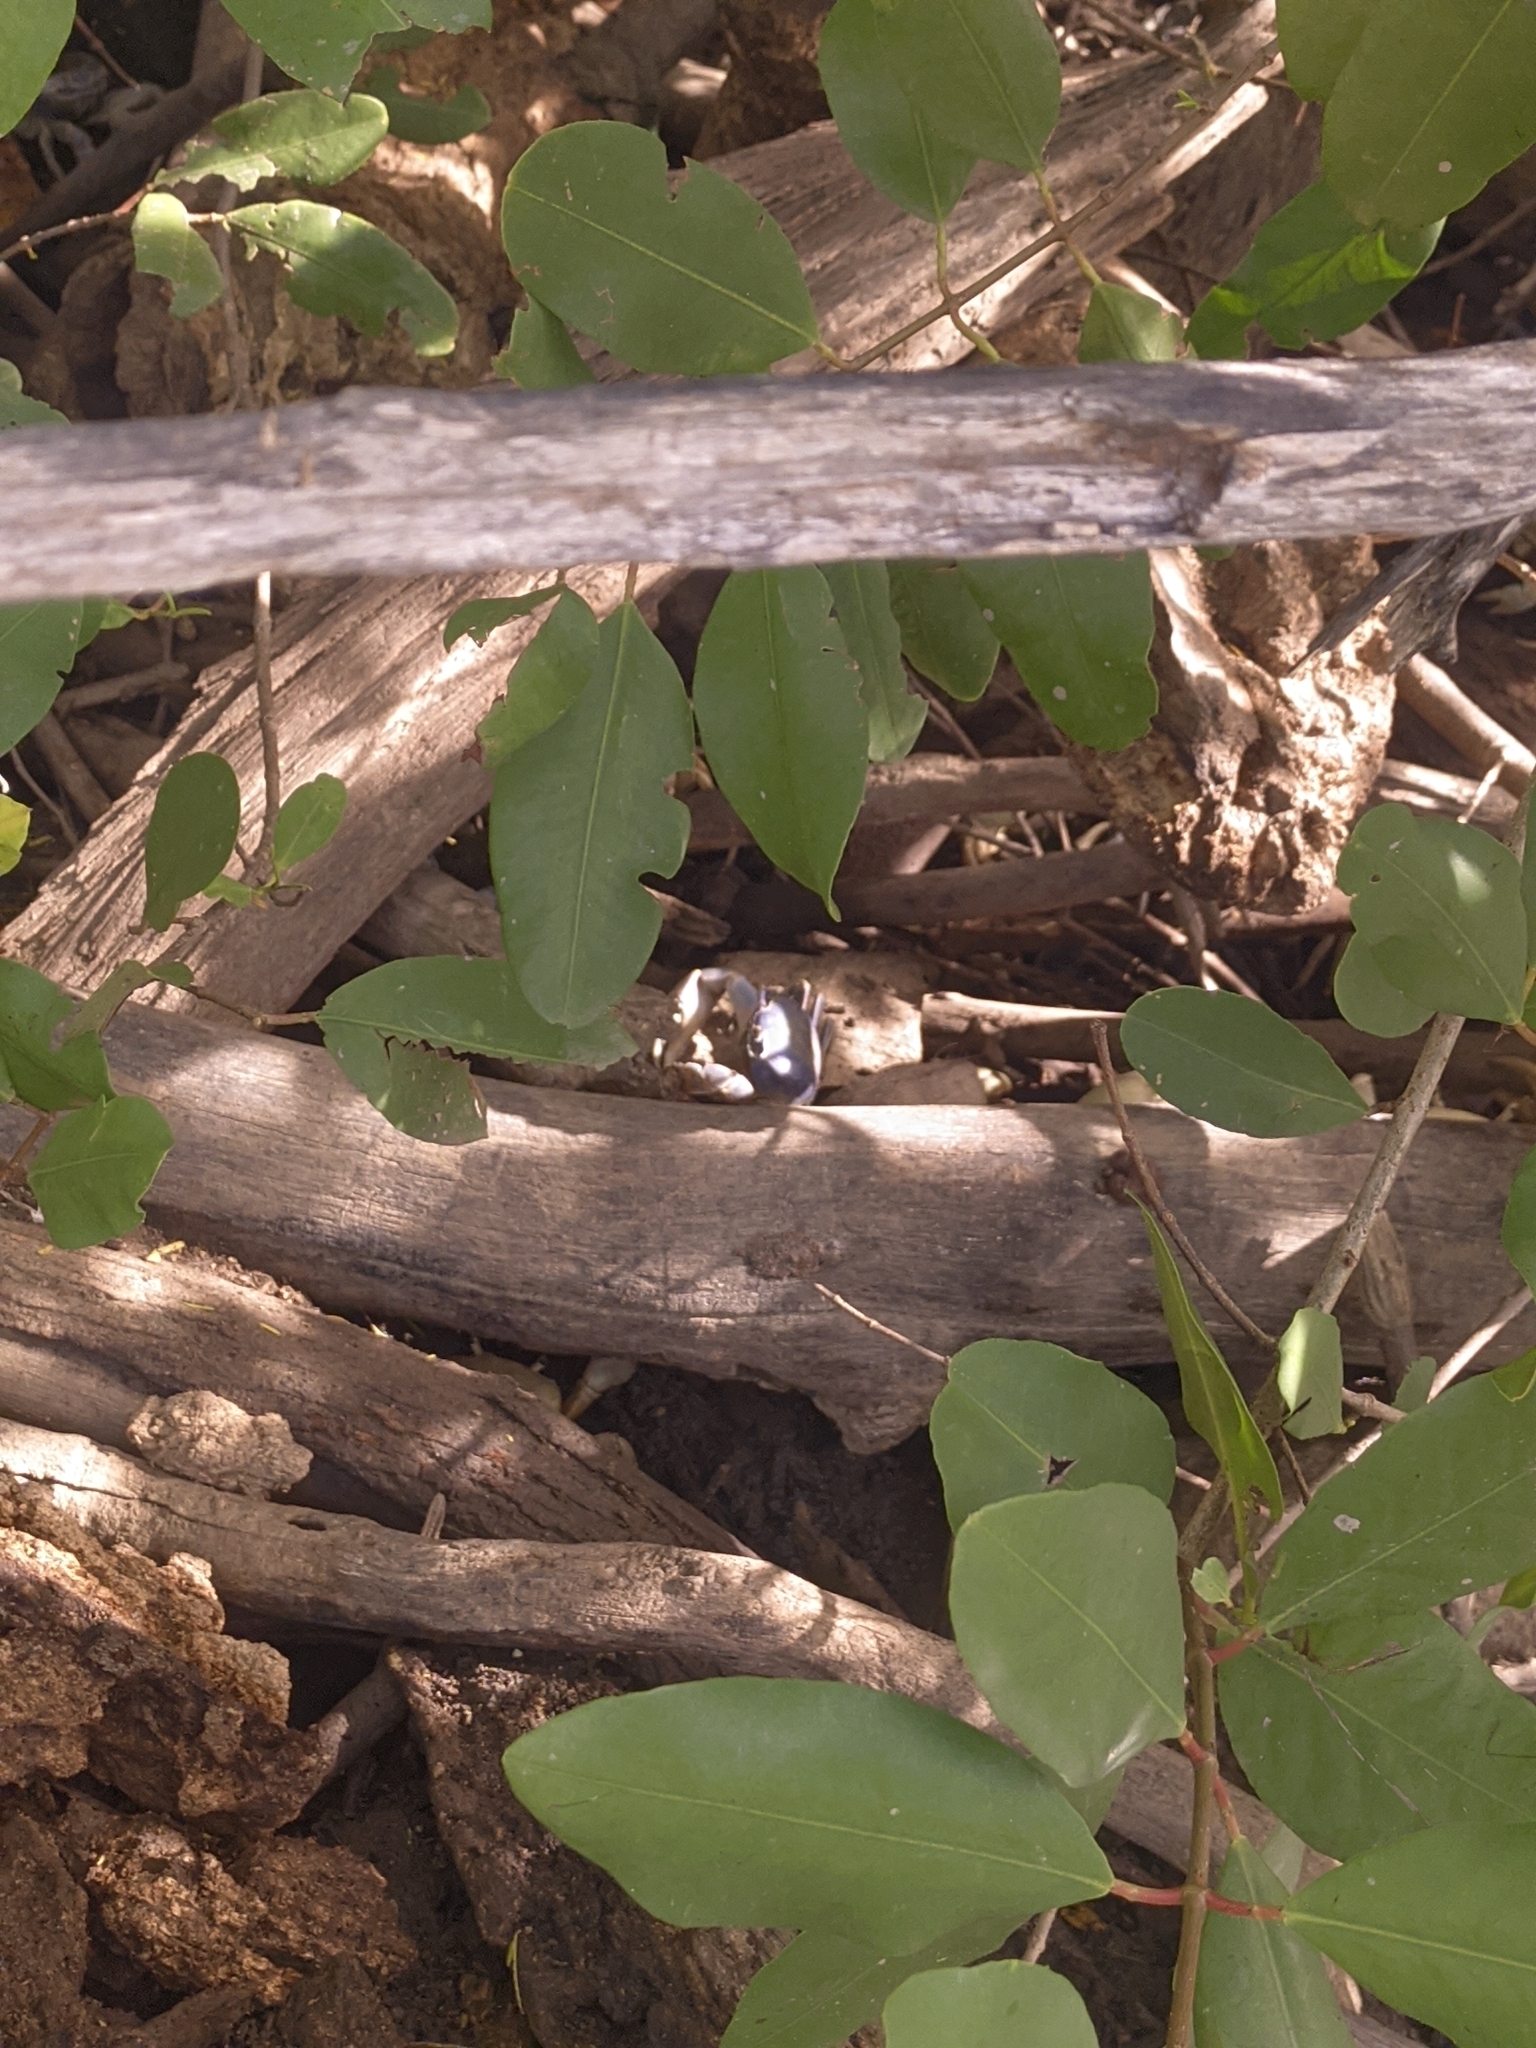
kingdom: Animalia
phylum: Arthropoda
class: Malacostraca
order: Decapoda
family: Gecarcinidae
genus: Cardisoma
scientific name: Cardisoma guanhumi
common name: Great land crab
